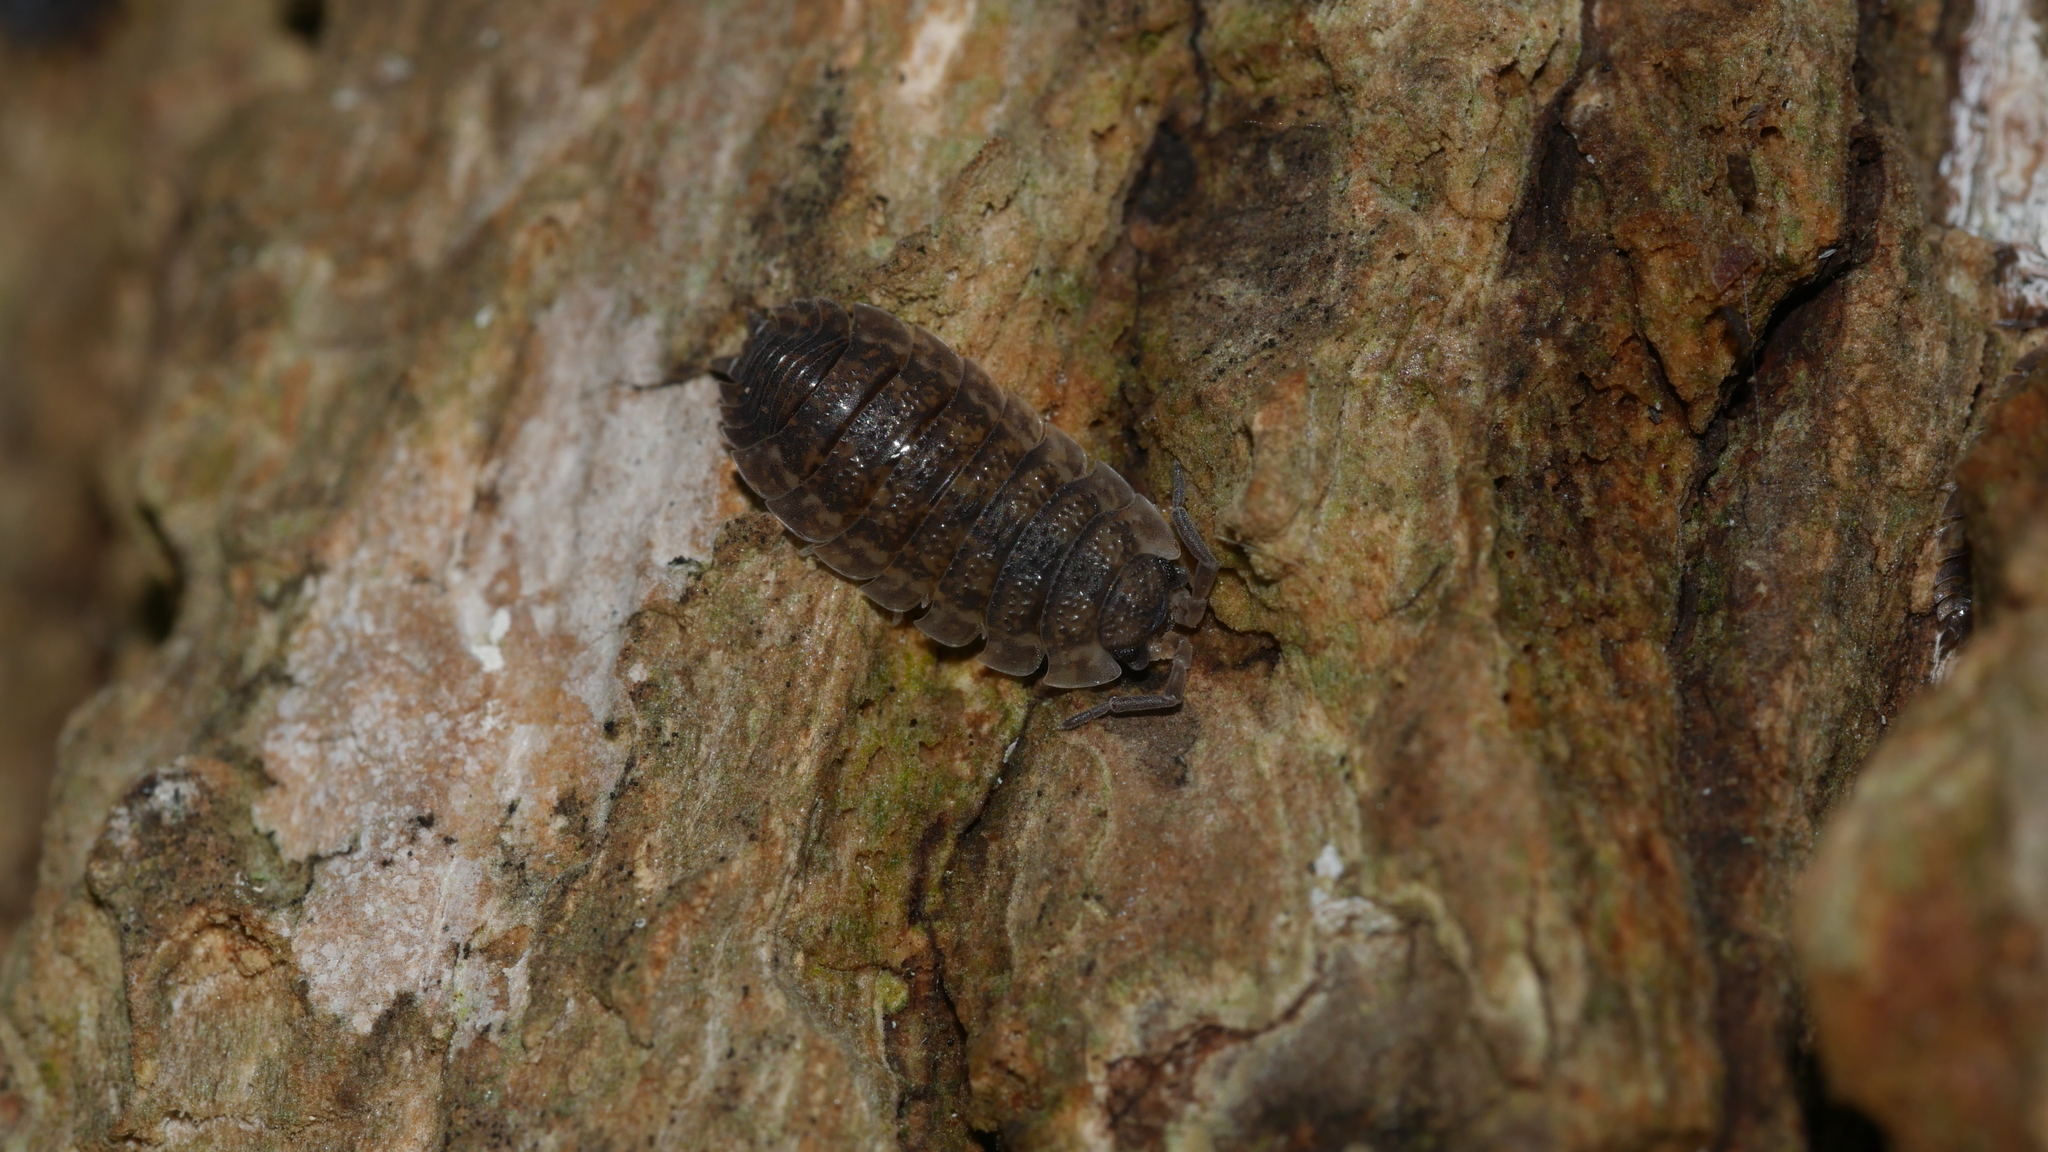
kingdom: Animalia
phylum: Arthropoda
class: Malacostraca
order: Isopoda
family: Porcellionidae
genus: Porcellio
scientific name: Porcellio scaber
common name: Common rough woodlouse
